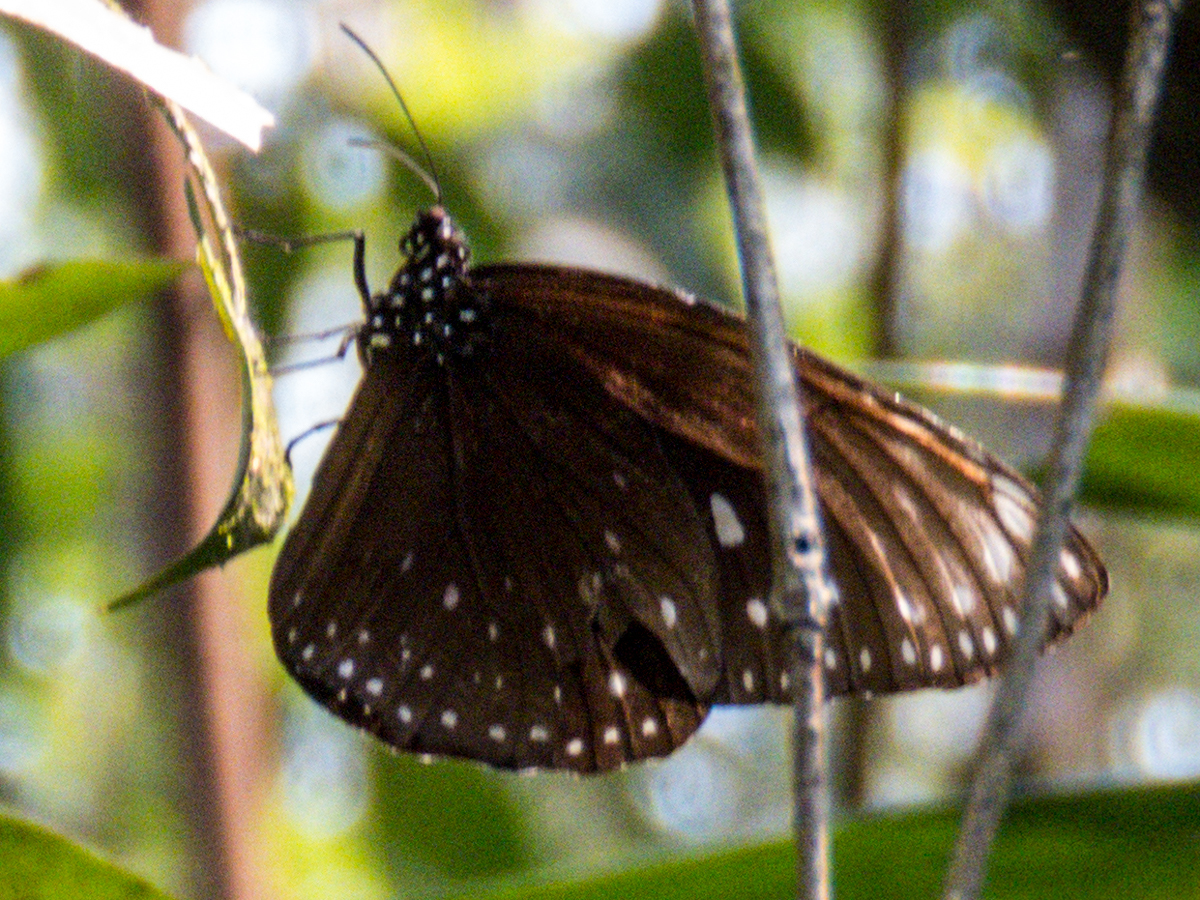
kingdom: Animalia
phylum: Arthropoda
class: Insecta
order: Lepidoptera
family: Nymphalidae
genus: Euploea
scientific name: Euploea phaenareta
